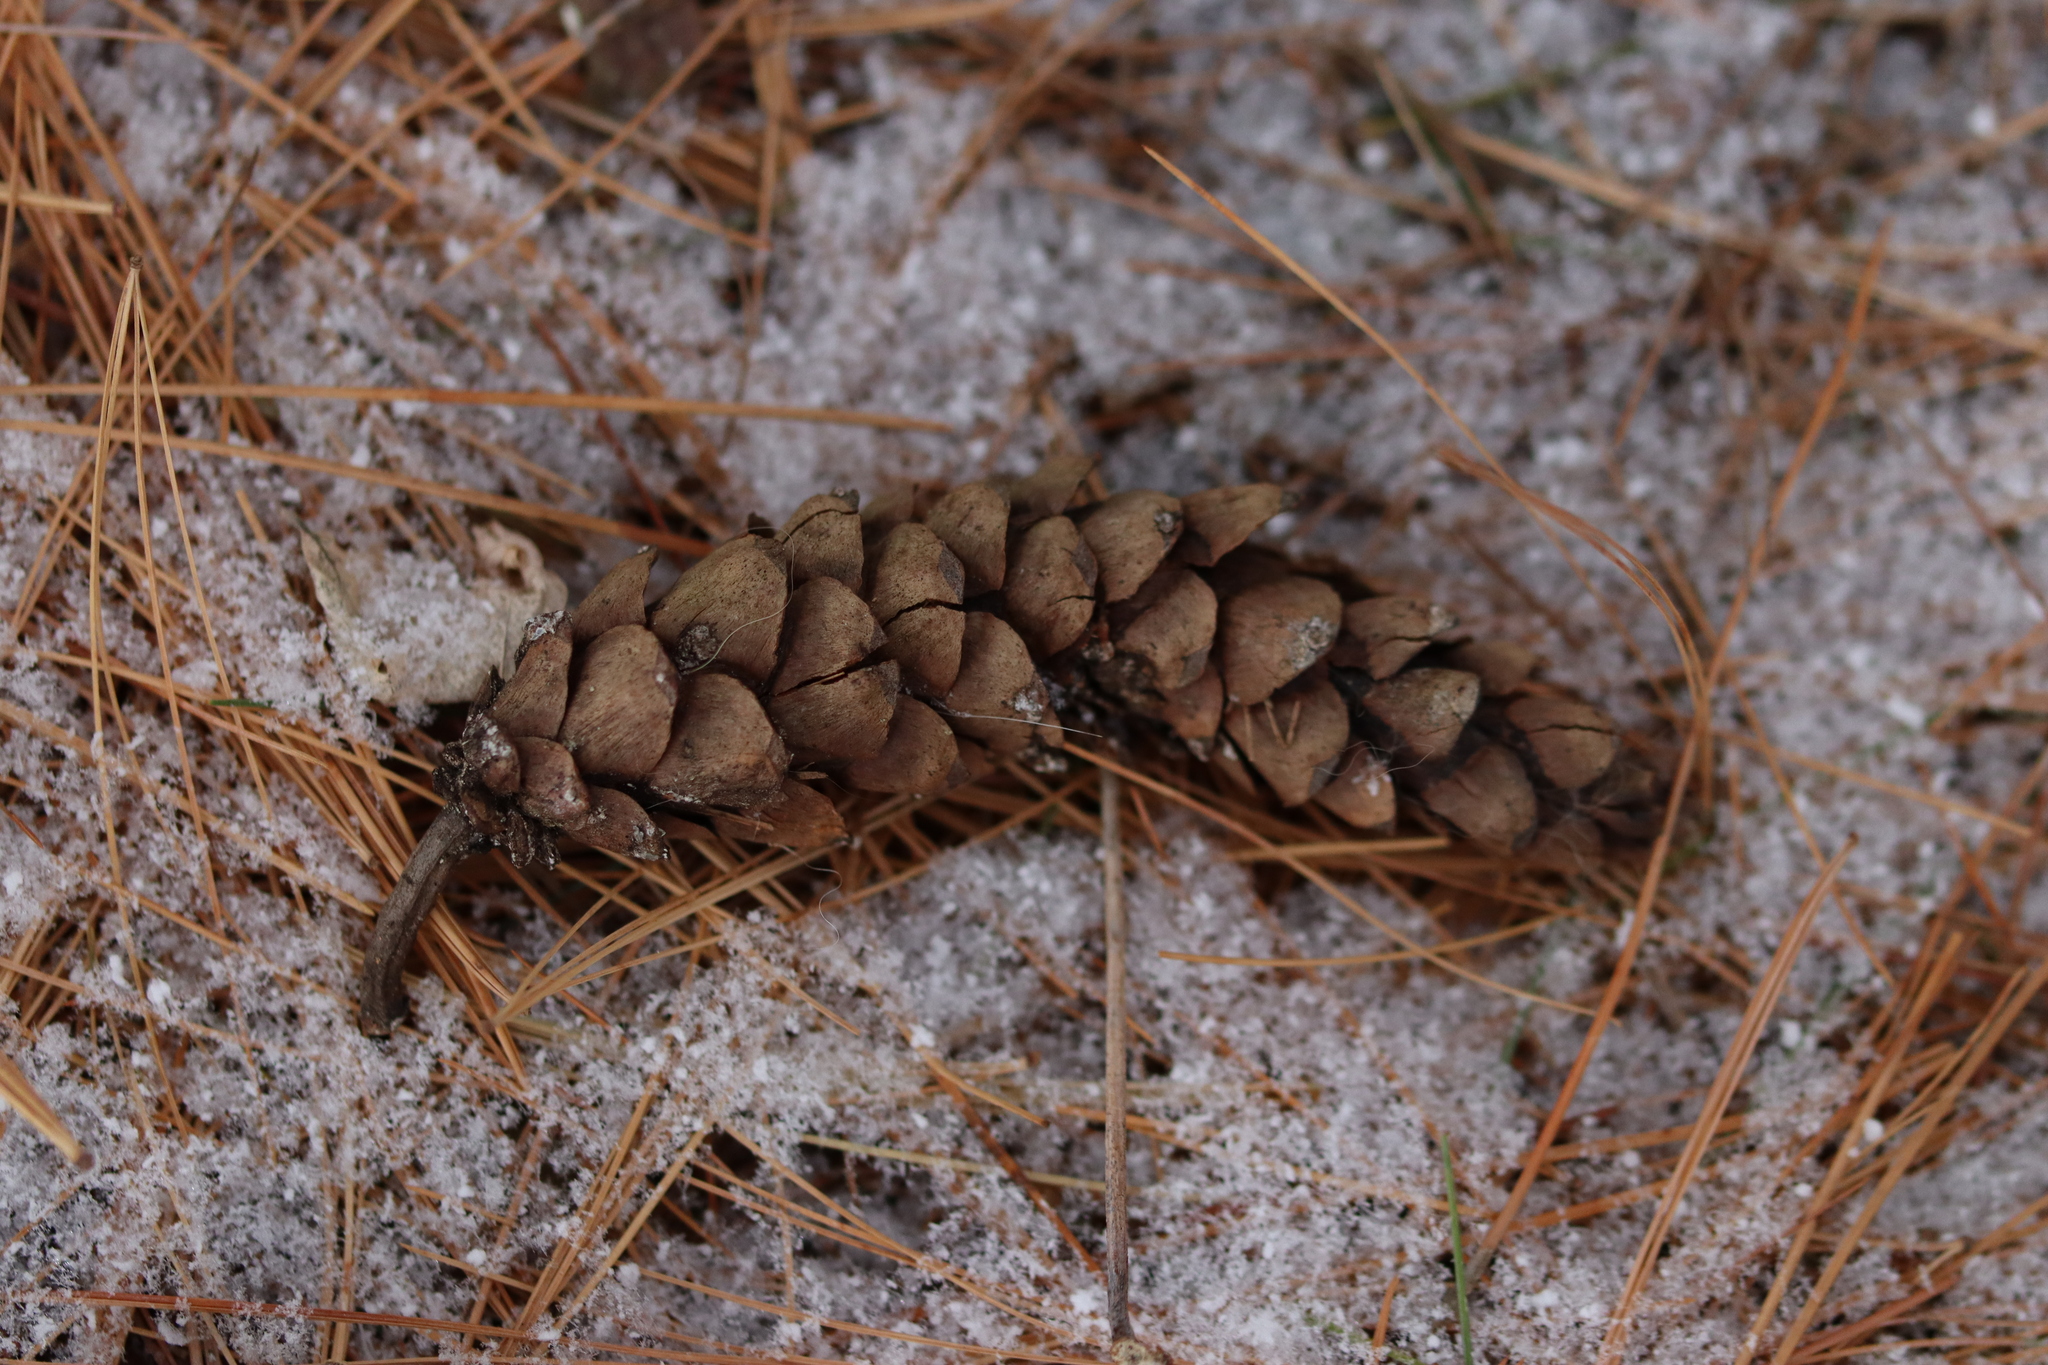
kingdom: Plantae
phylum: Tracheophyta
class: Pinopsida
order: Pinales
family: Pinaceae
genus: Pinus
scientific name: Pinus strobus
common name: Weymouth pine
